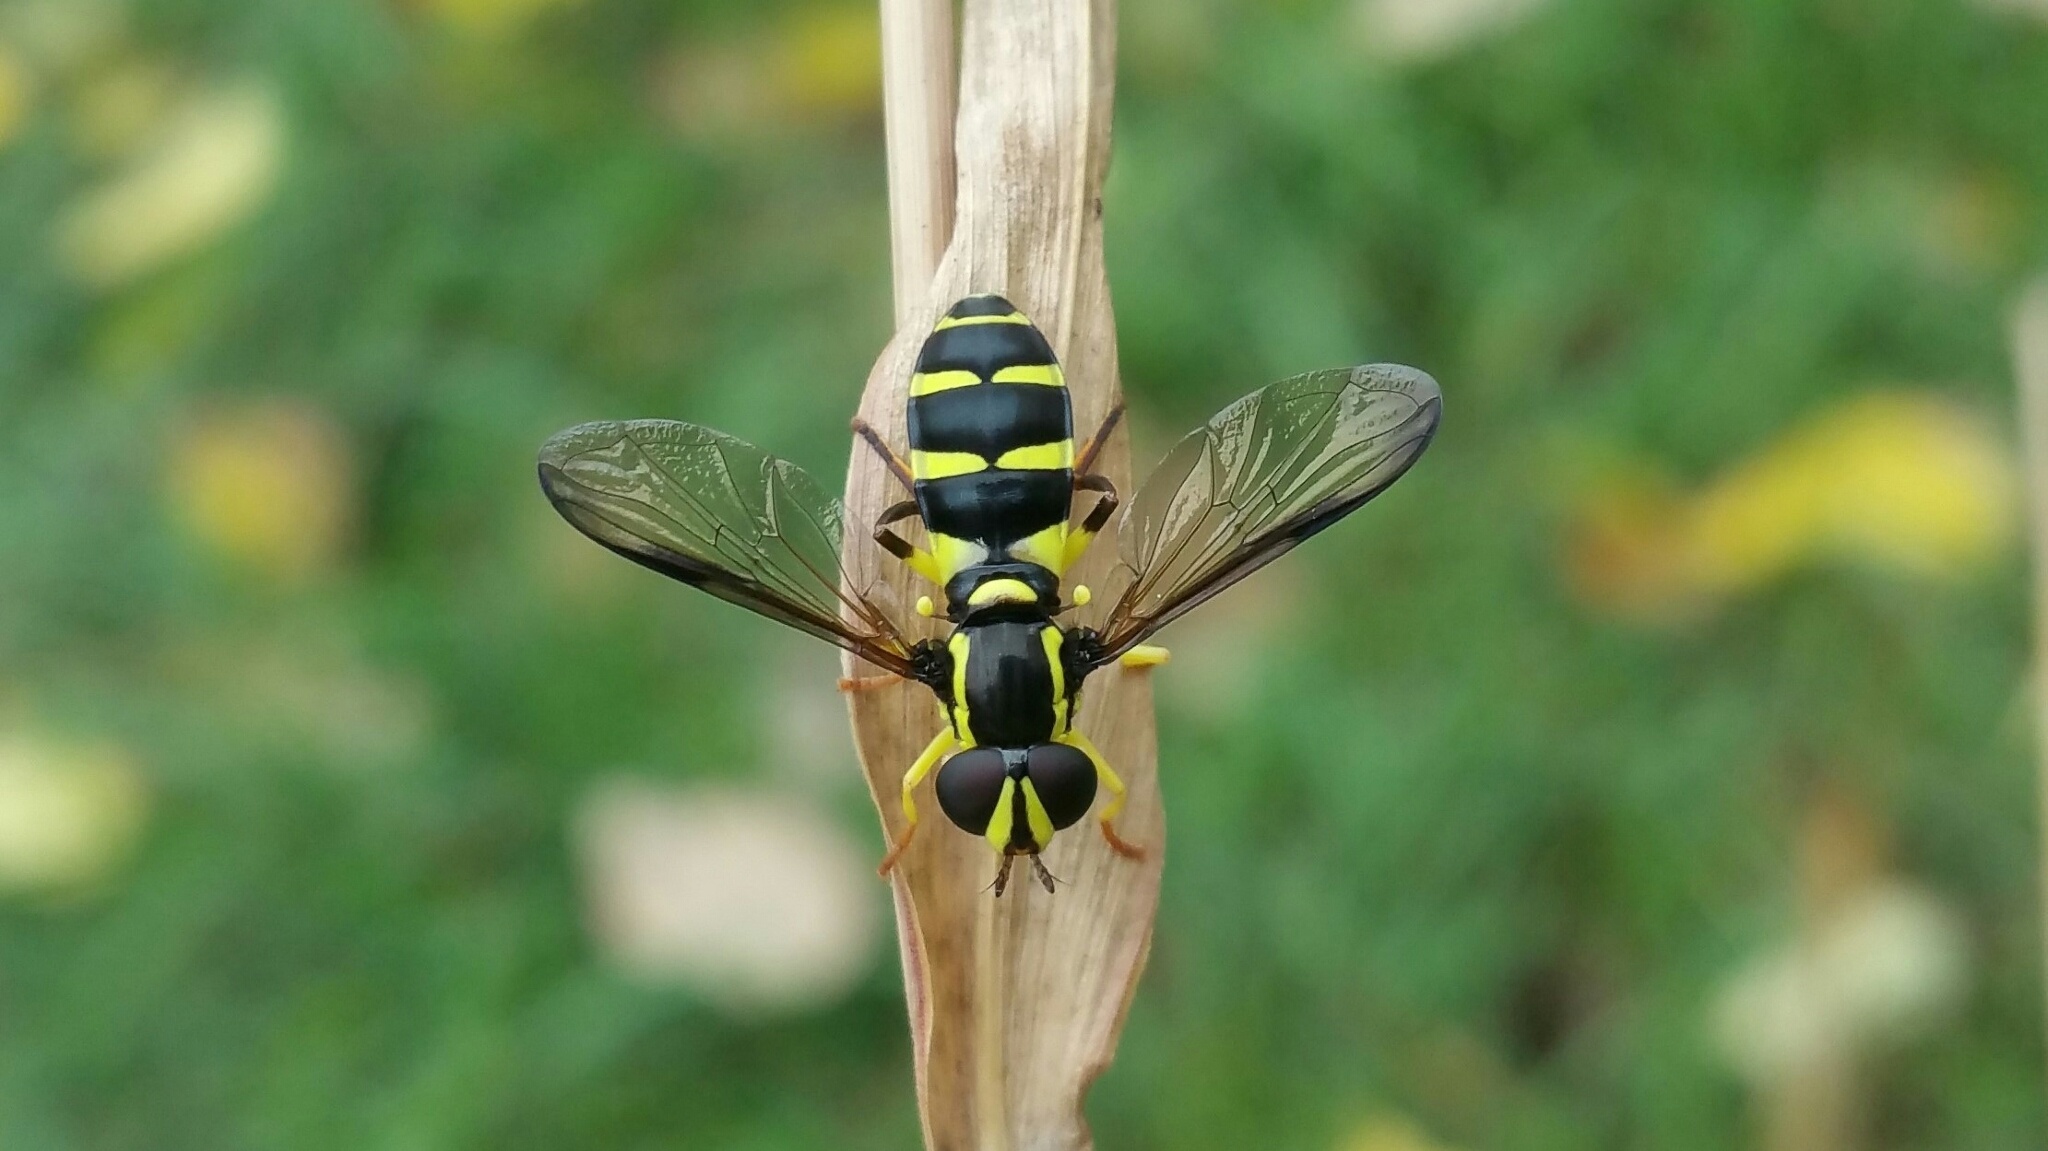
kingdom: Animalia
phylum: Arthropoda
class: Insecta
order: Diptera
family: Syrphidae
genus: Philhelius
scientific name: Philhelius dives
